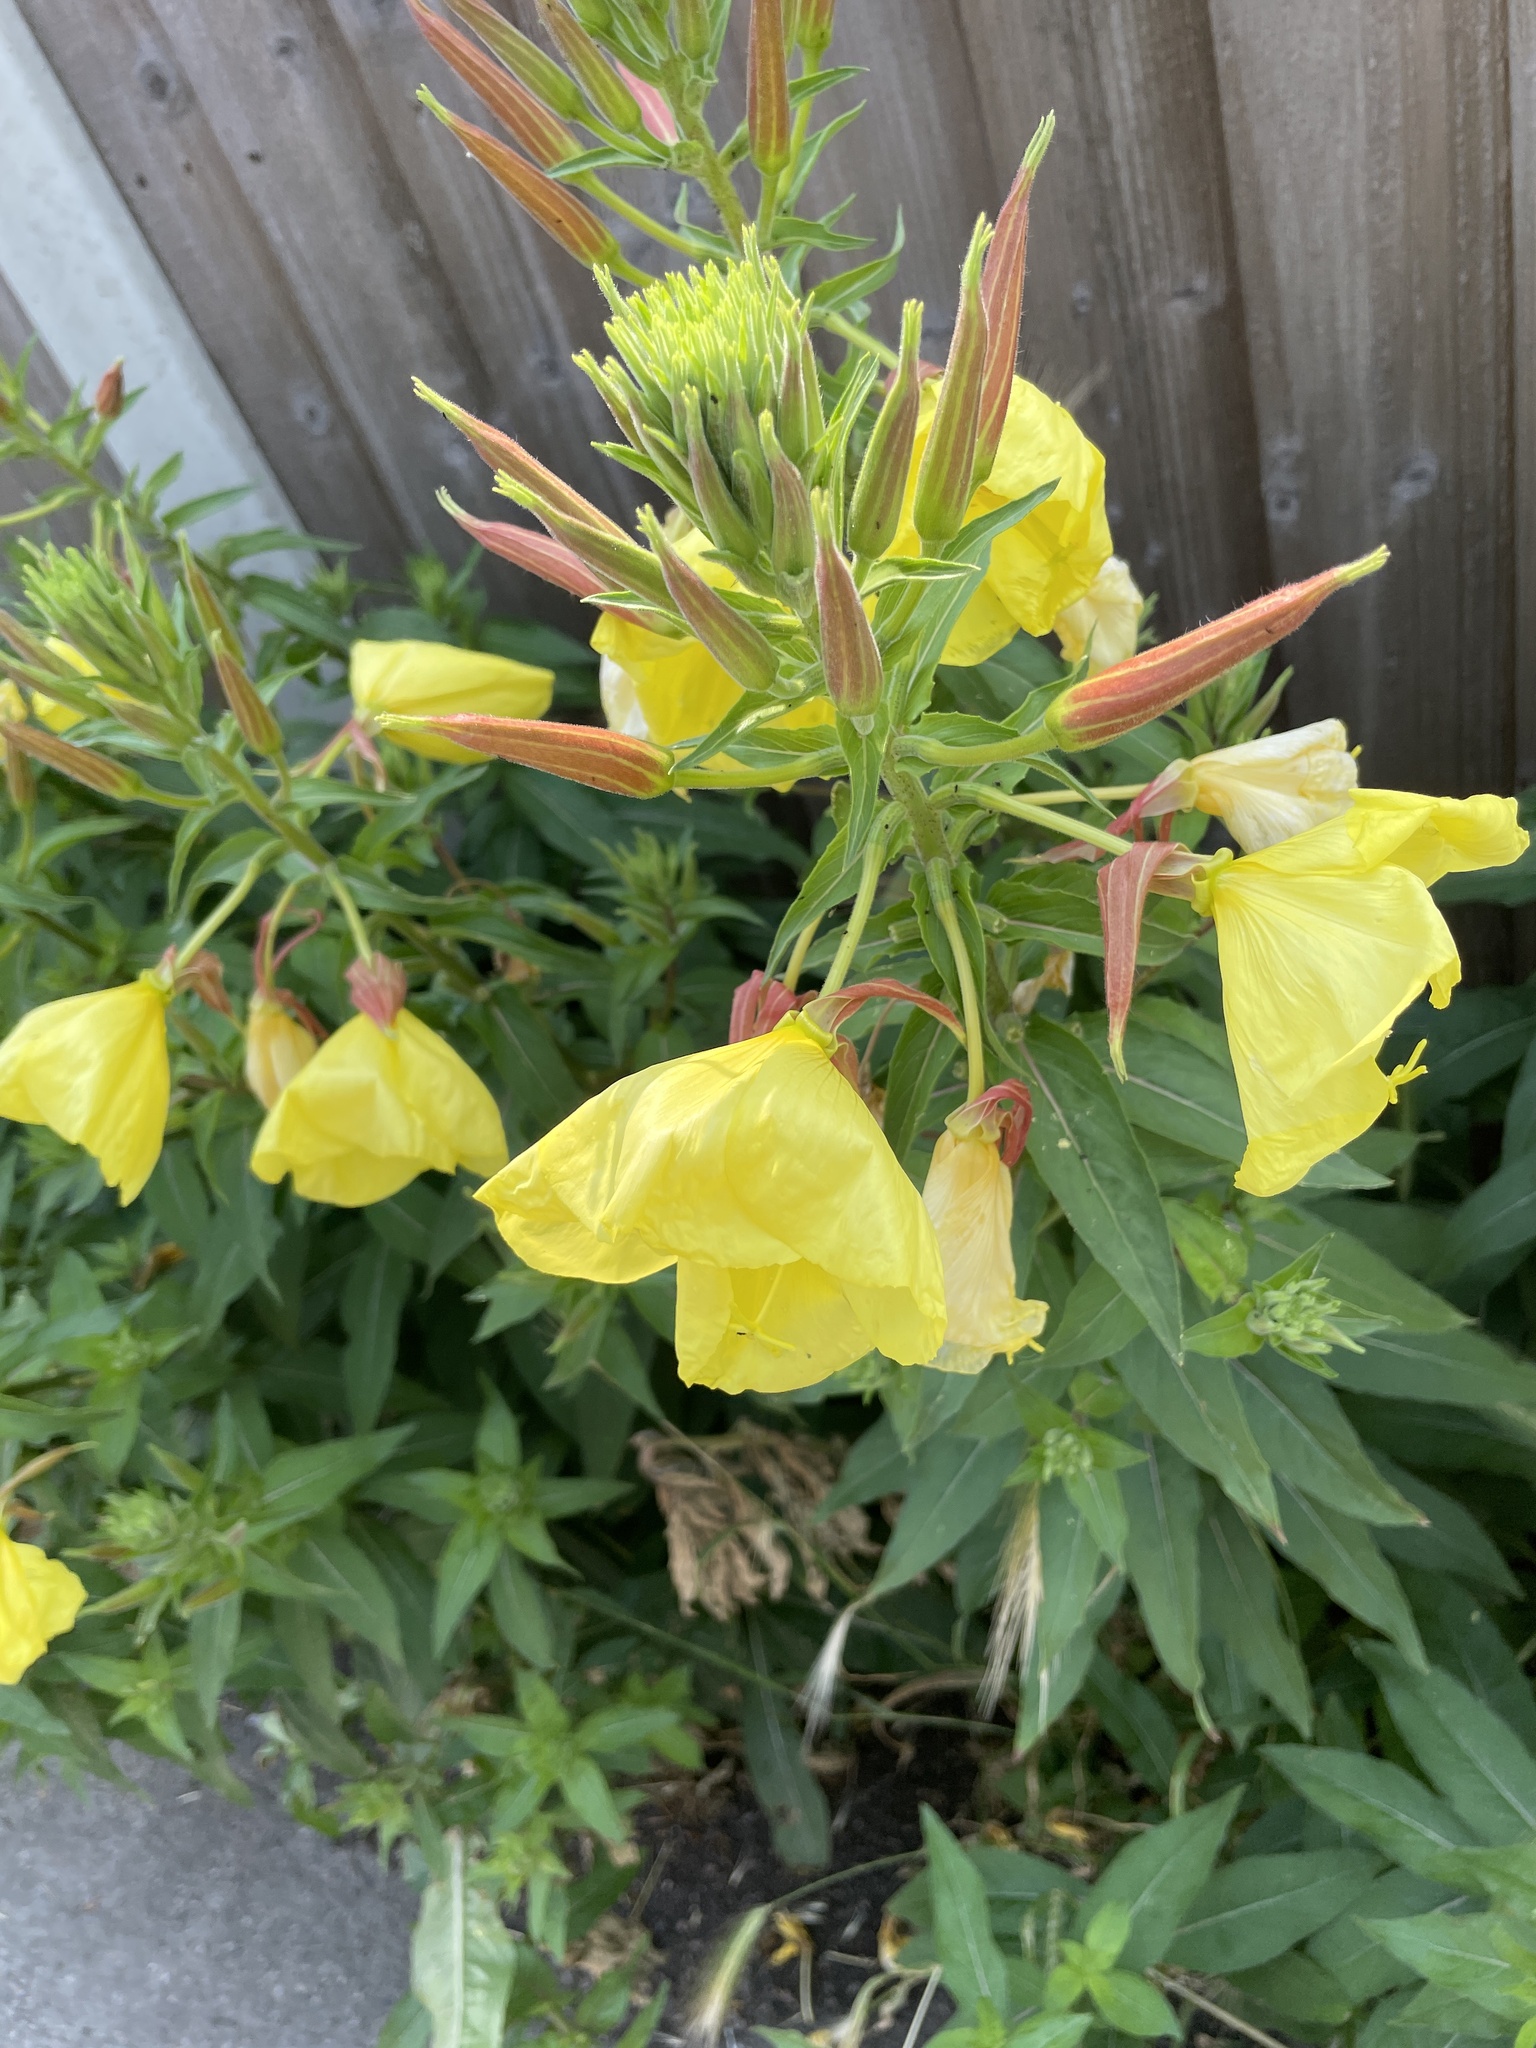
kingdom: Plantae
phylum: Tracheophyta
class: Magnoliopsida
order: Myrtales
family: Onagraceae
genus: Oenothera
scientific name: Oenothera glazioviana
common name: Large-flowered evening-primrose
